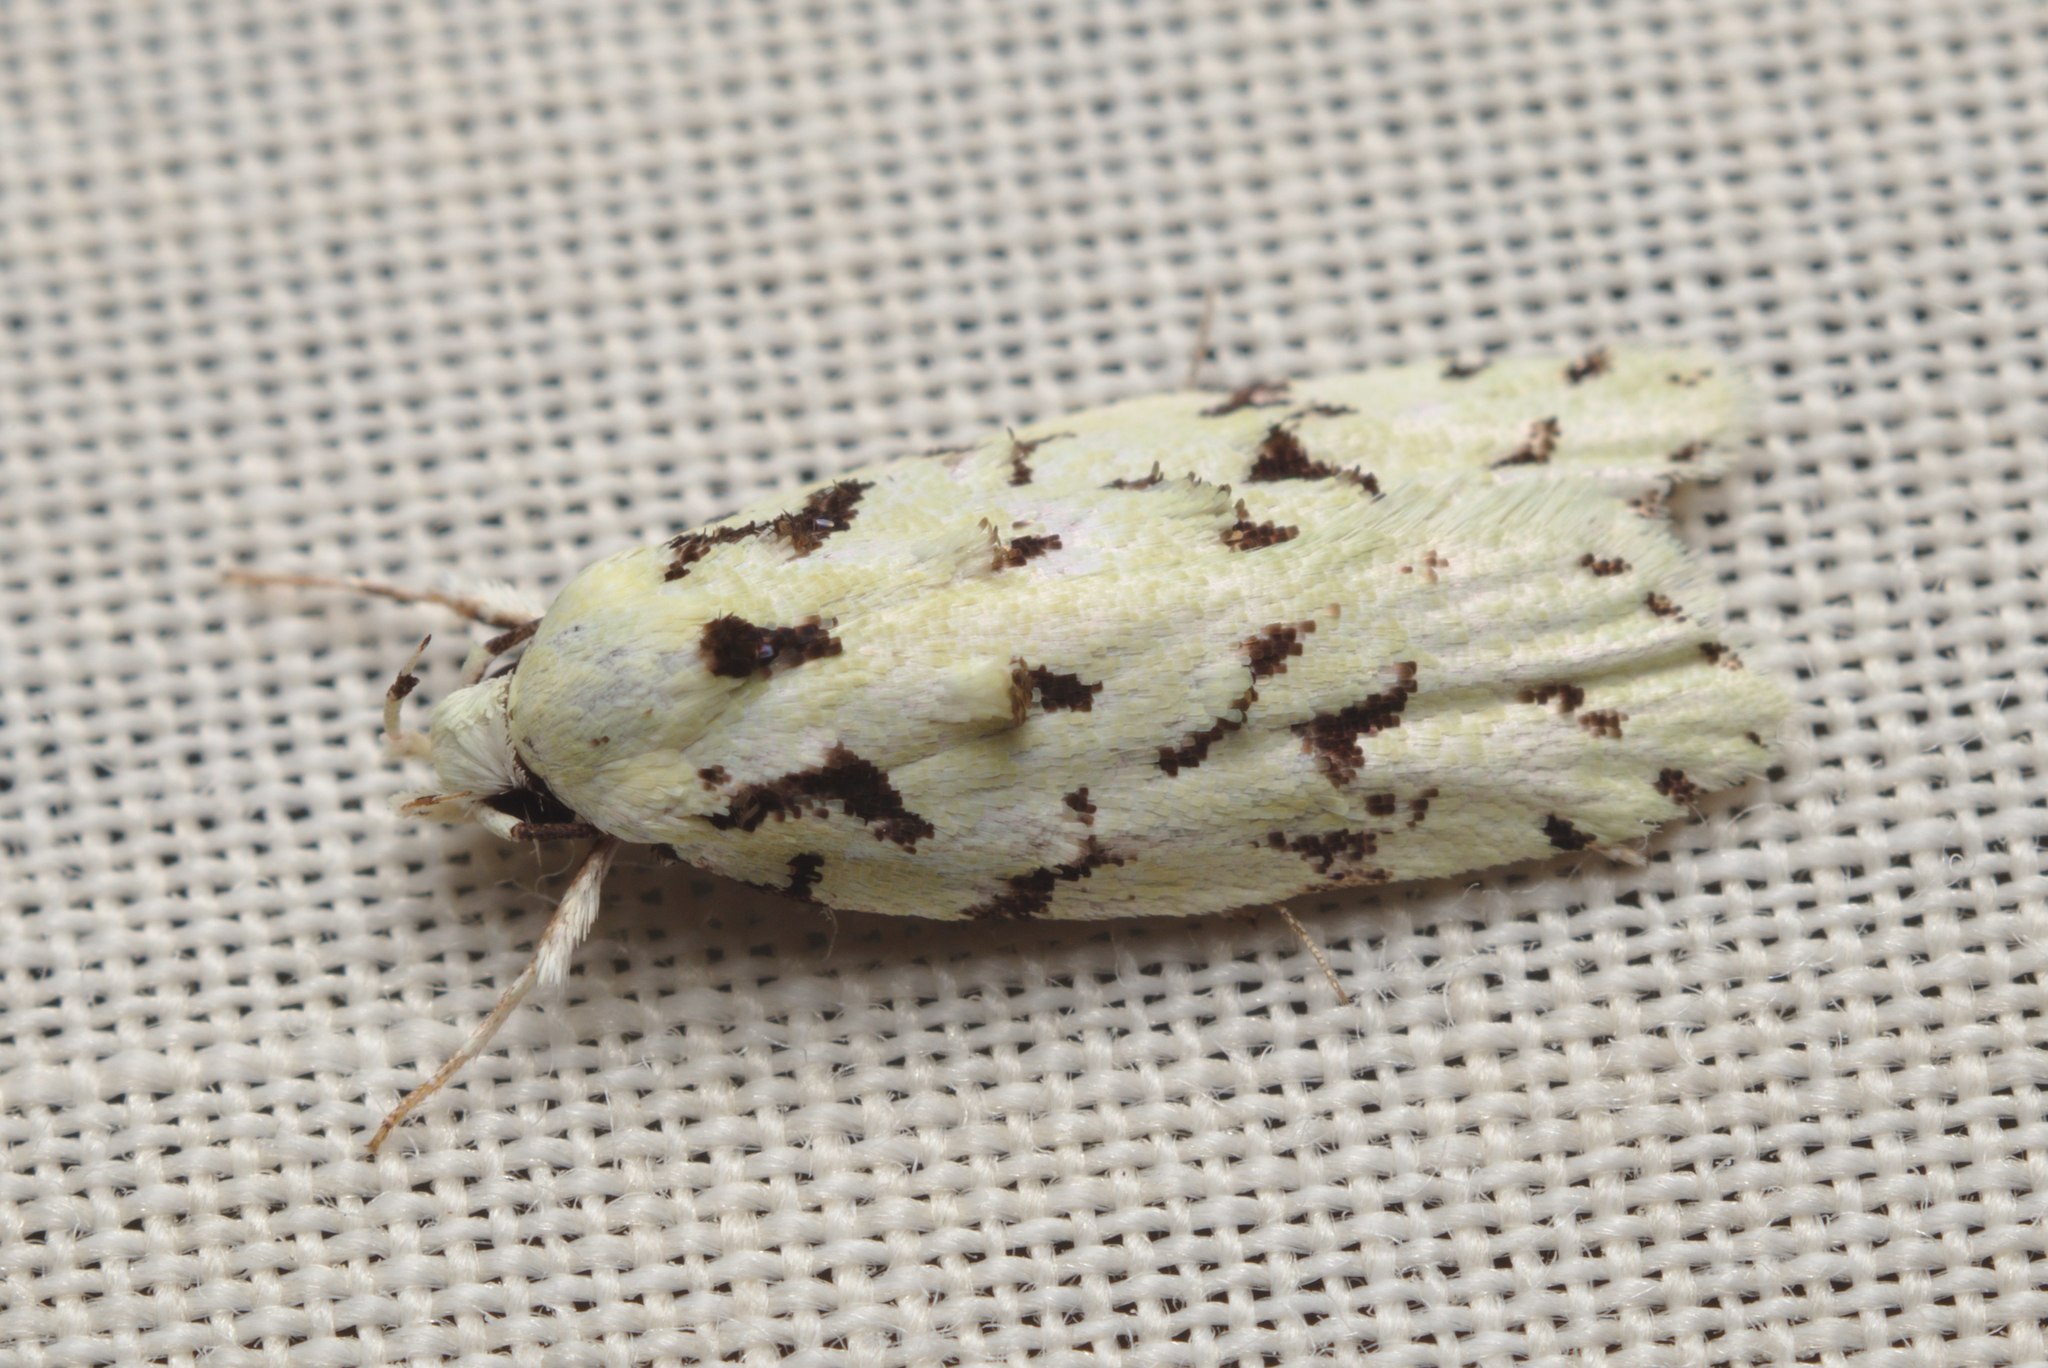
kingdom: Animalia
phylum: Arthropoda
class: Insecta
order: Lepidoptera
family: Oecophoridae
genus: Izatha
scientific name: Izatha peroneanella
